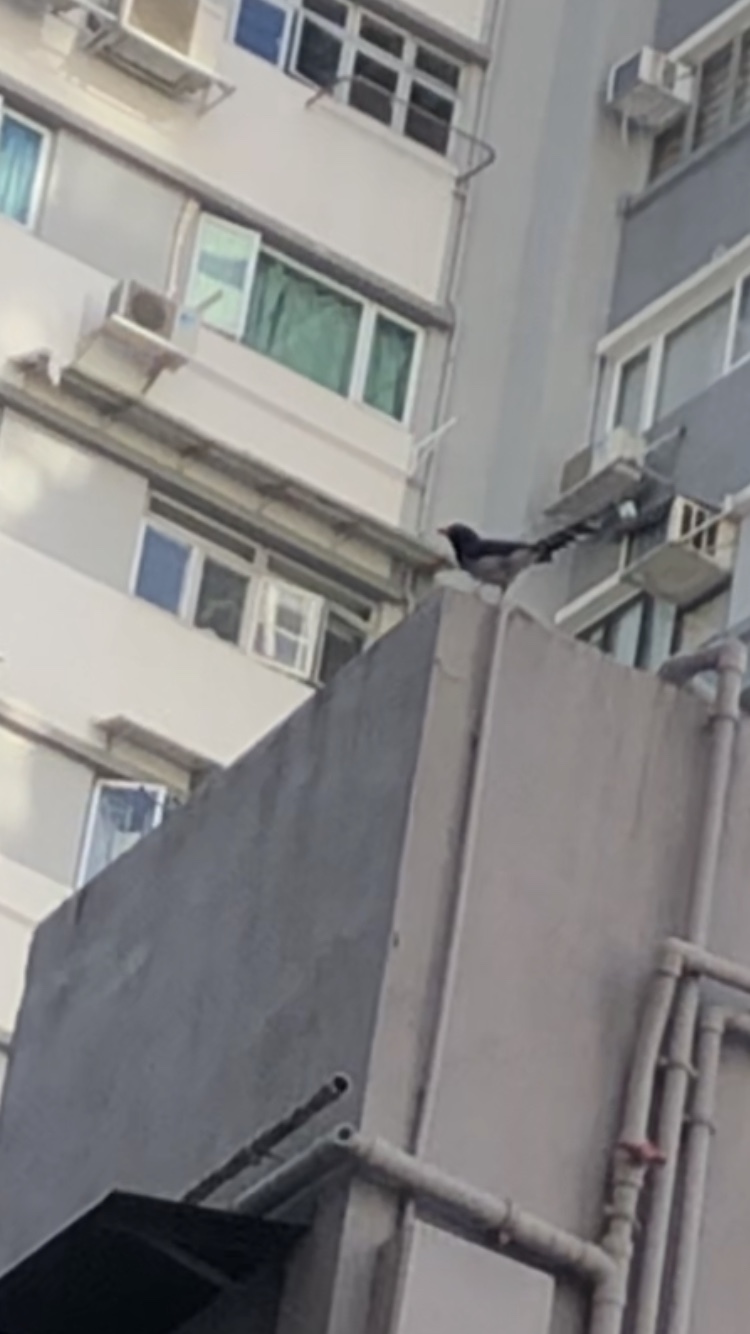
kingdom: Animalia
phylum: Chordata
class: Aves
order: Passeriformes
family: Corvidae
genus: Urocissa
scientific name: Urocissa erythroryncha
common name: Red-billed blue magpie
